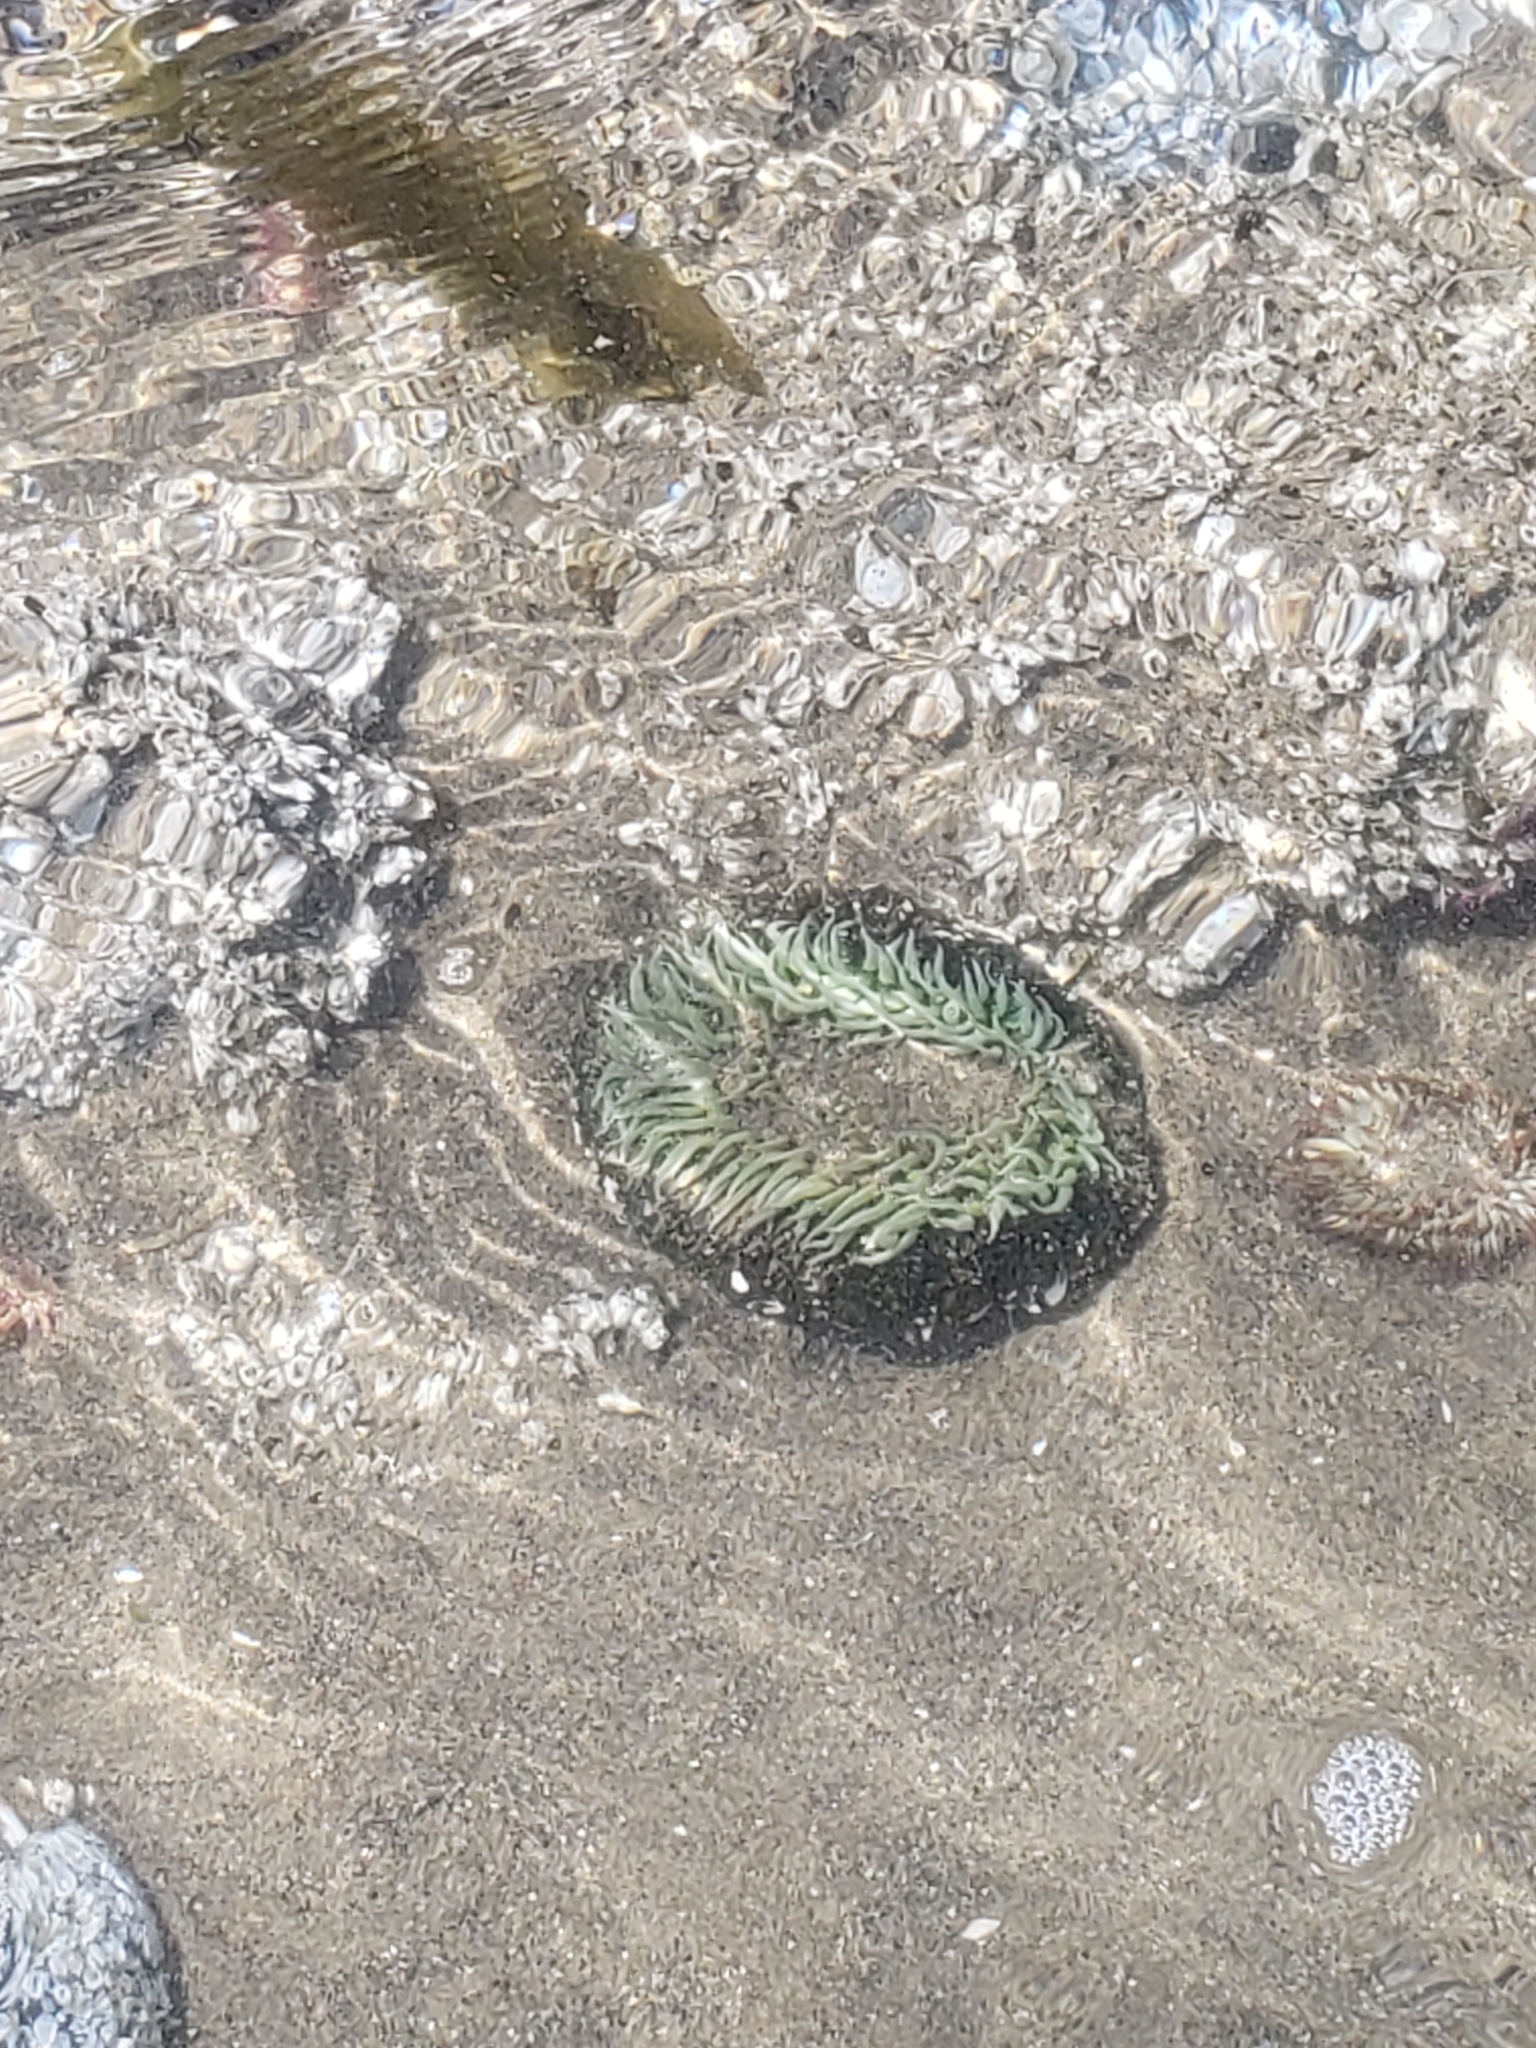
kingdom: Animalia
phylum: Cnidaria
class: Anthozoa
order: Actiniaria
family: Actiniidae
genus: Anthopleura
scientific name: Anthopleura xanthogrammica
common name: Giant green anemone
